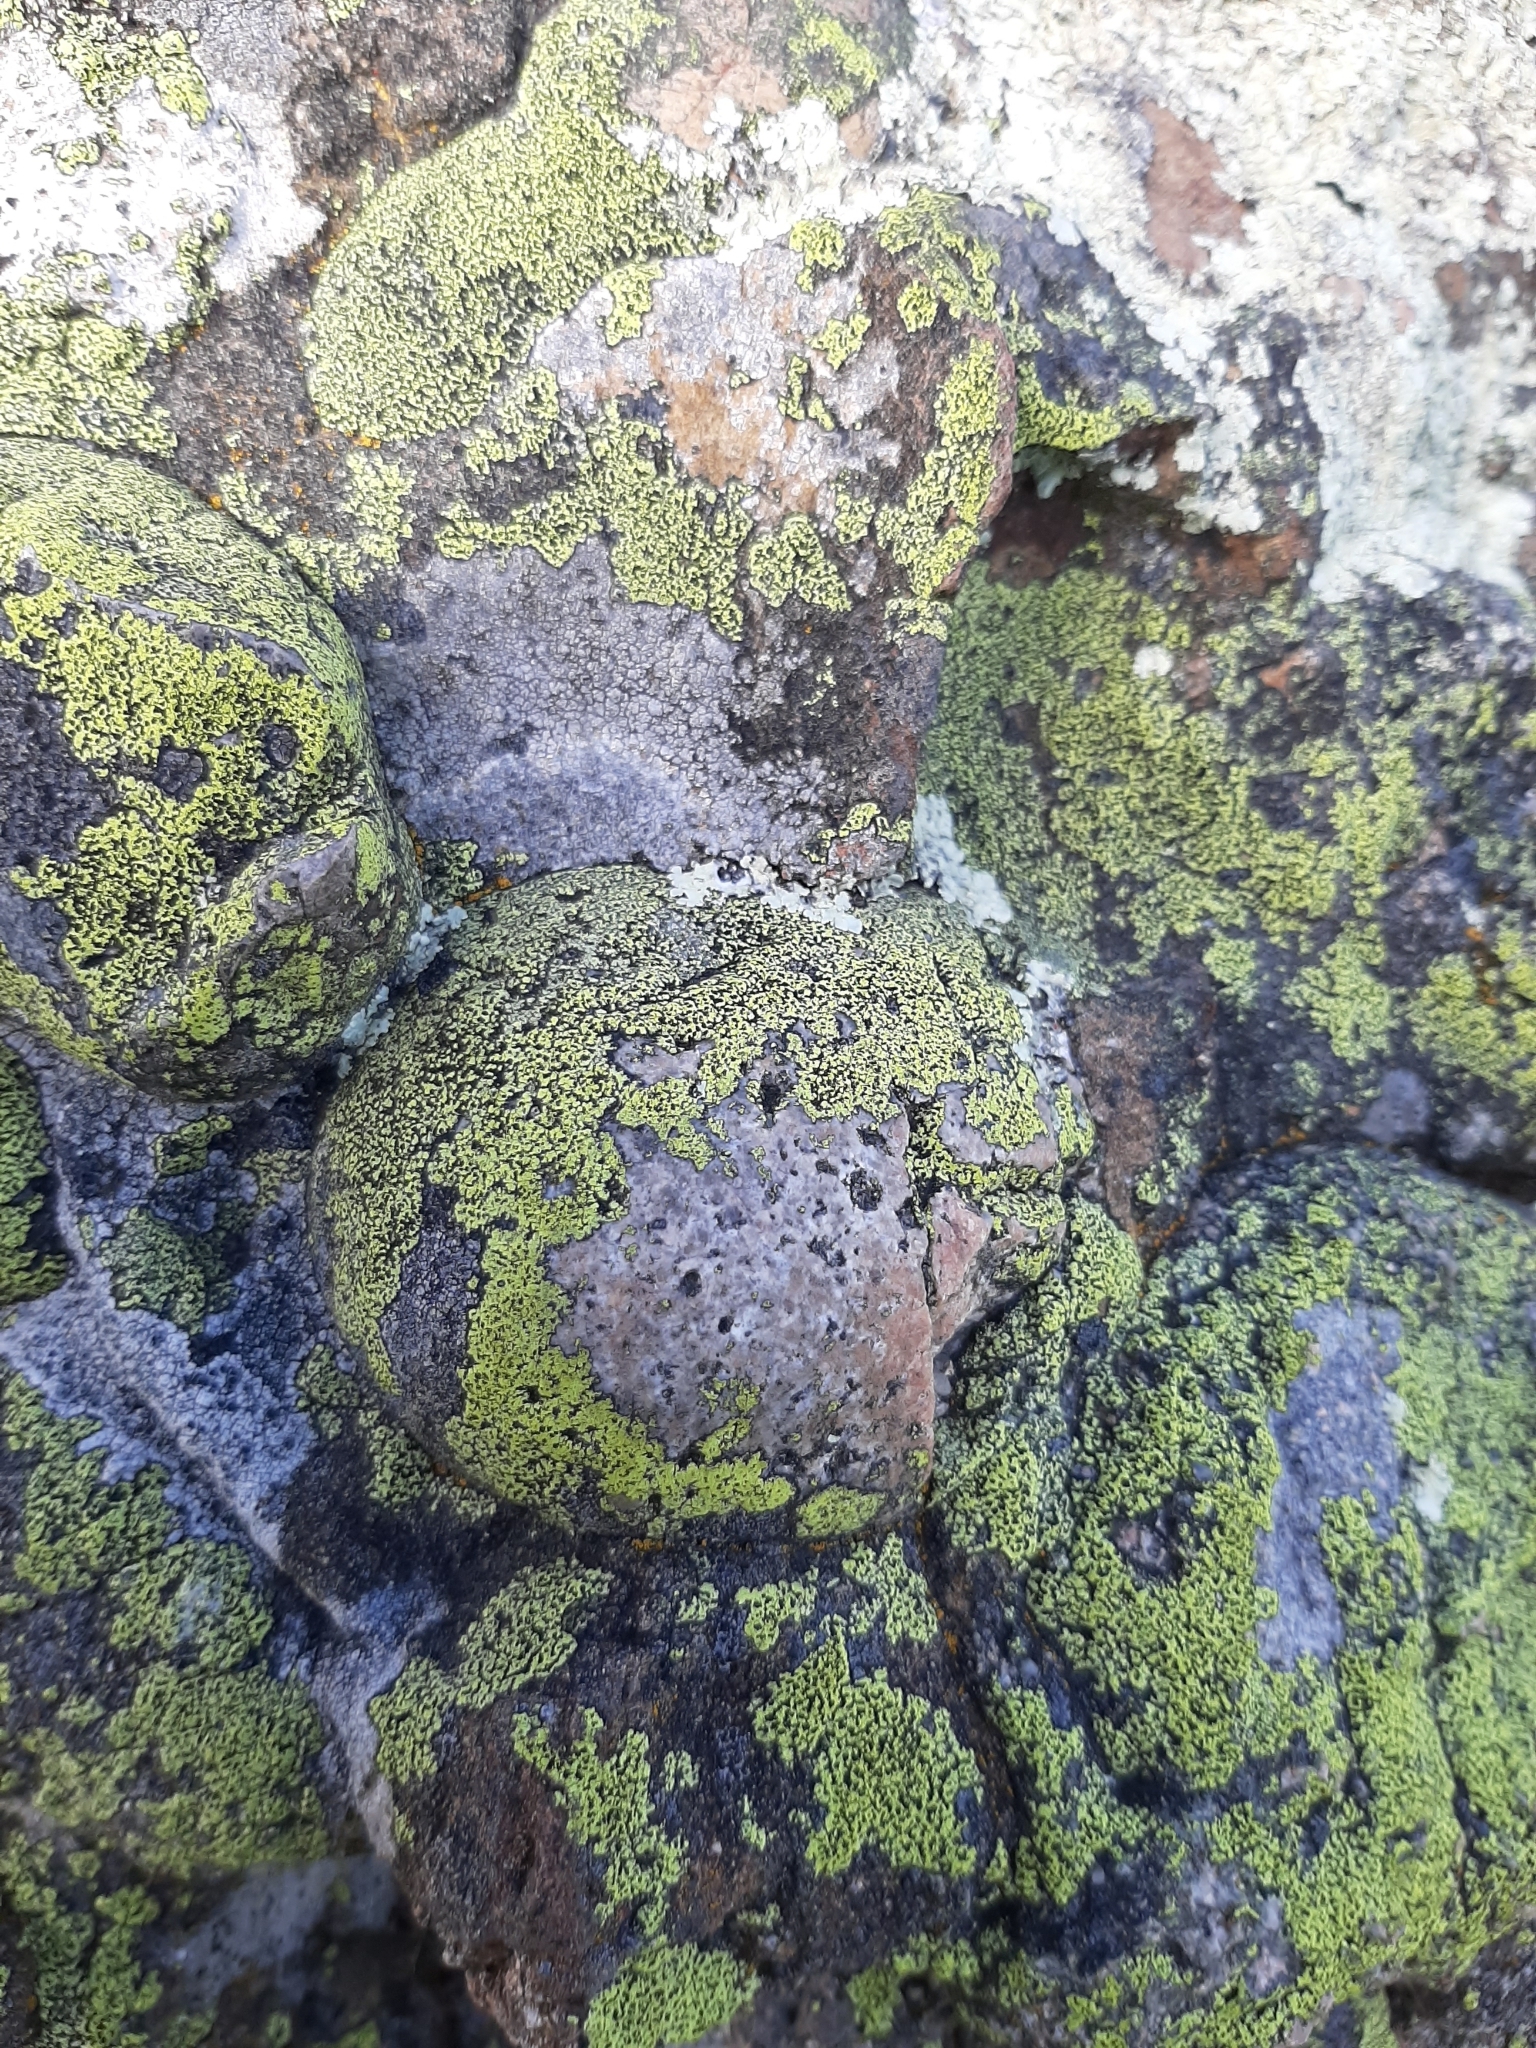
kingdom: Fungi
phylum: Ascomycota
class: Lecanoromycetes
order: Rhizocarpales
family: Rhizocarpaceae
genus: Rhizocarpon
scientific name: Rhizocarpon geographicum
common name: Yellow map lichen
